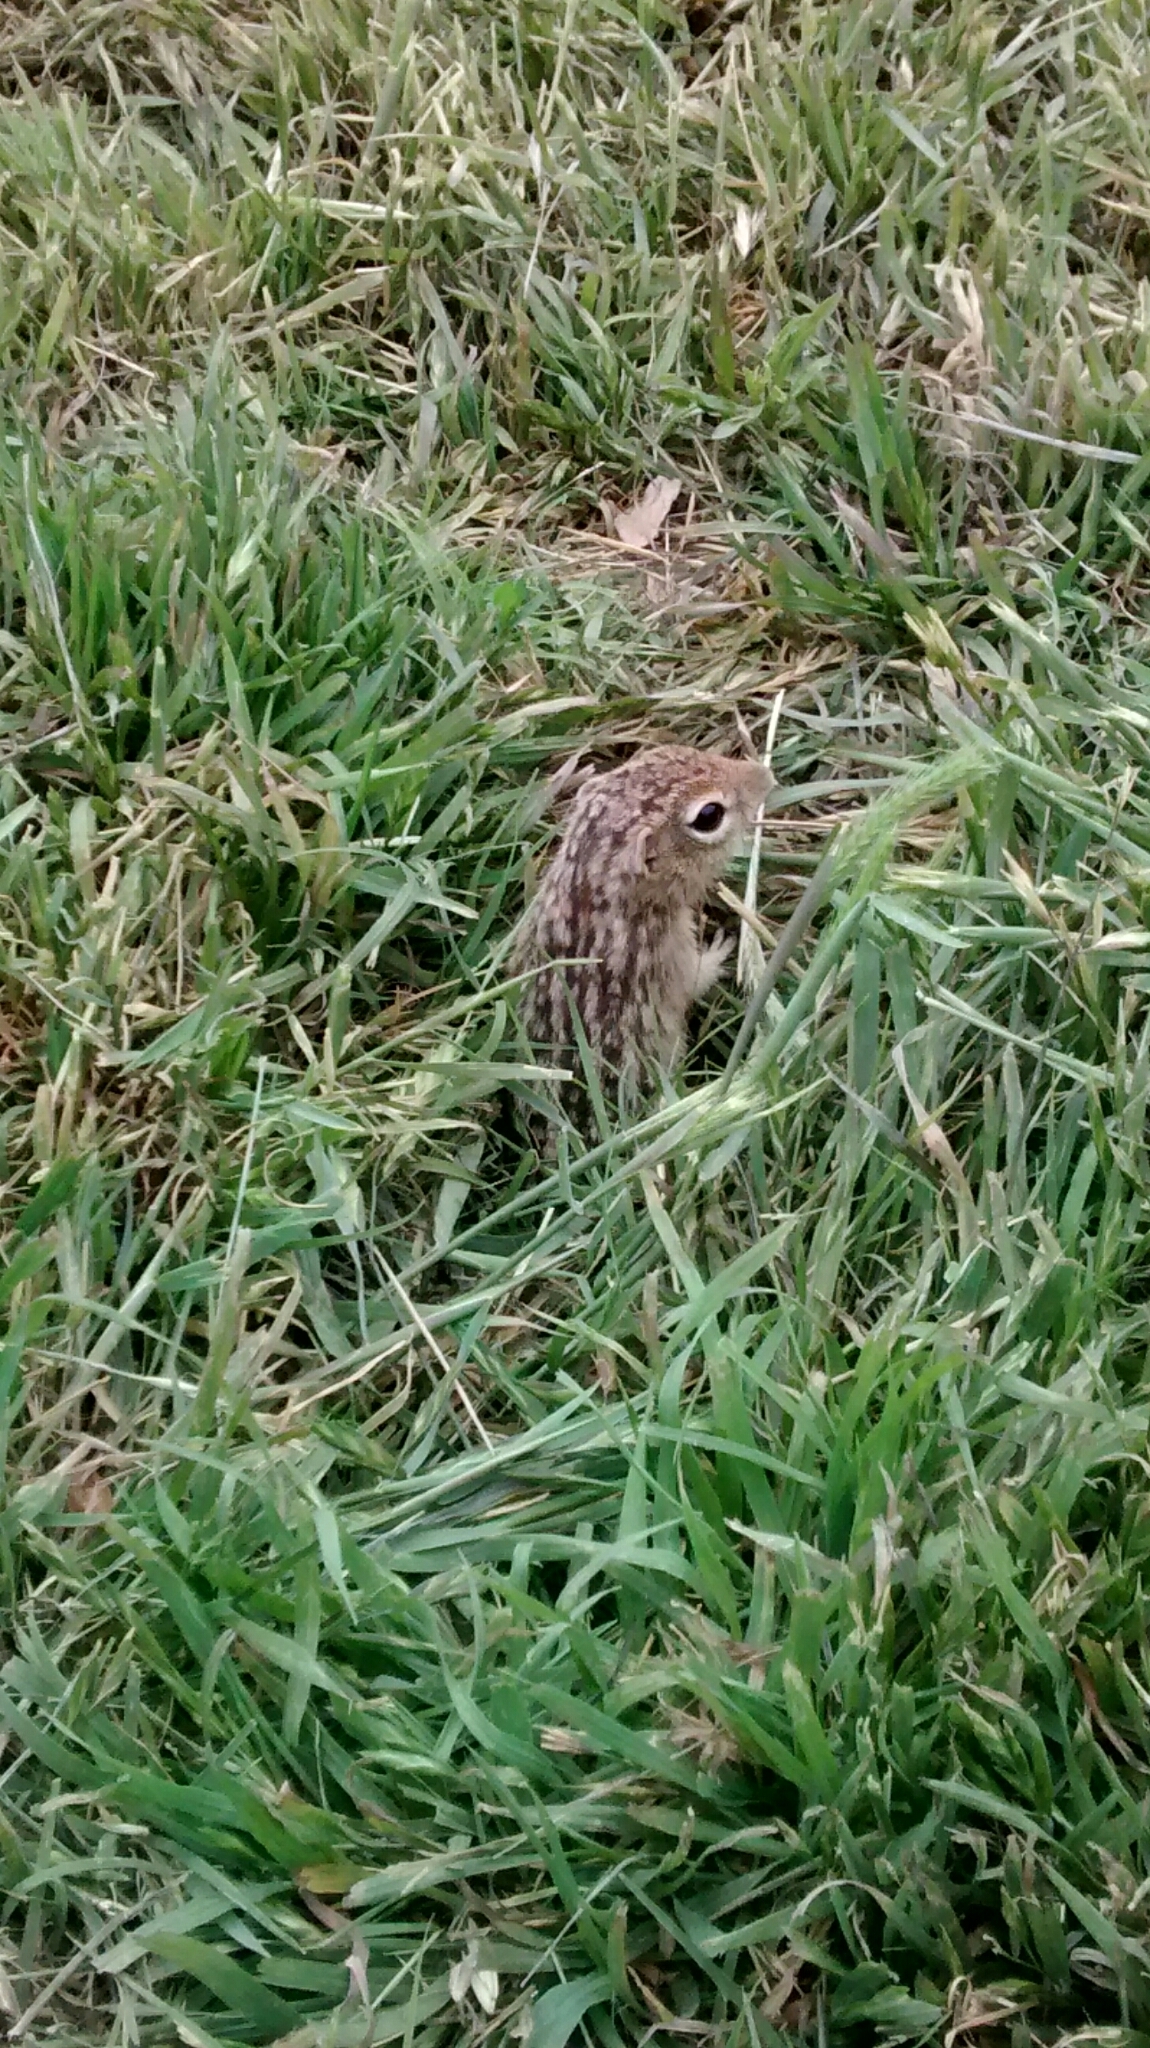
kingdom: Animalia
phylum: Chordata
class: Mammalia
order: Rodentia
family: Sciuridae
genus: Ictidomys
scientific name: Ictidomys tridecemlineatus
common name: Thirteen-lined ground squirrel
